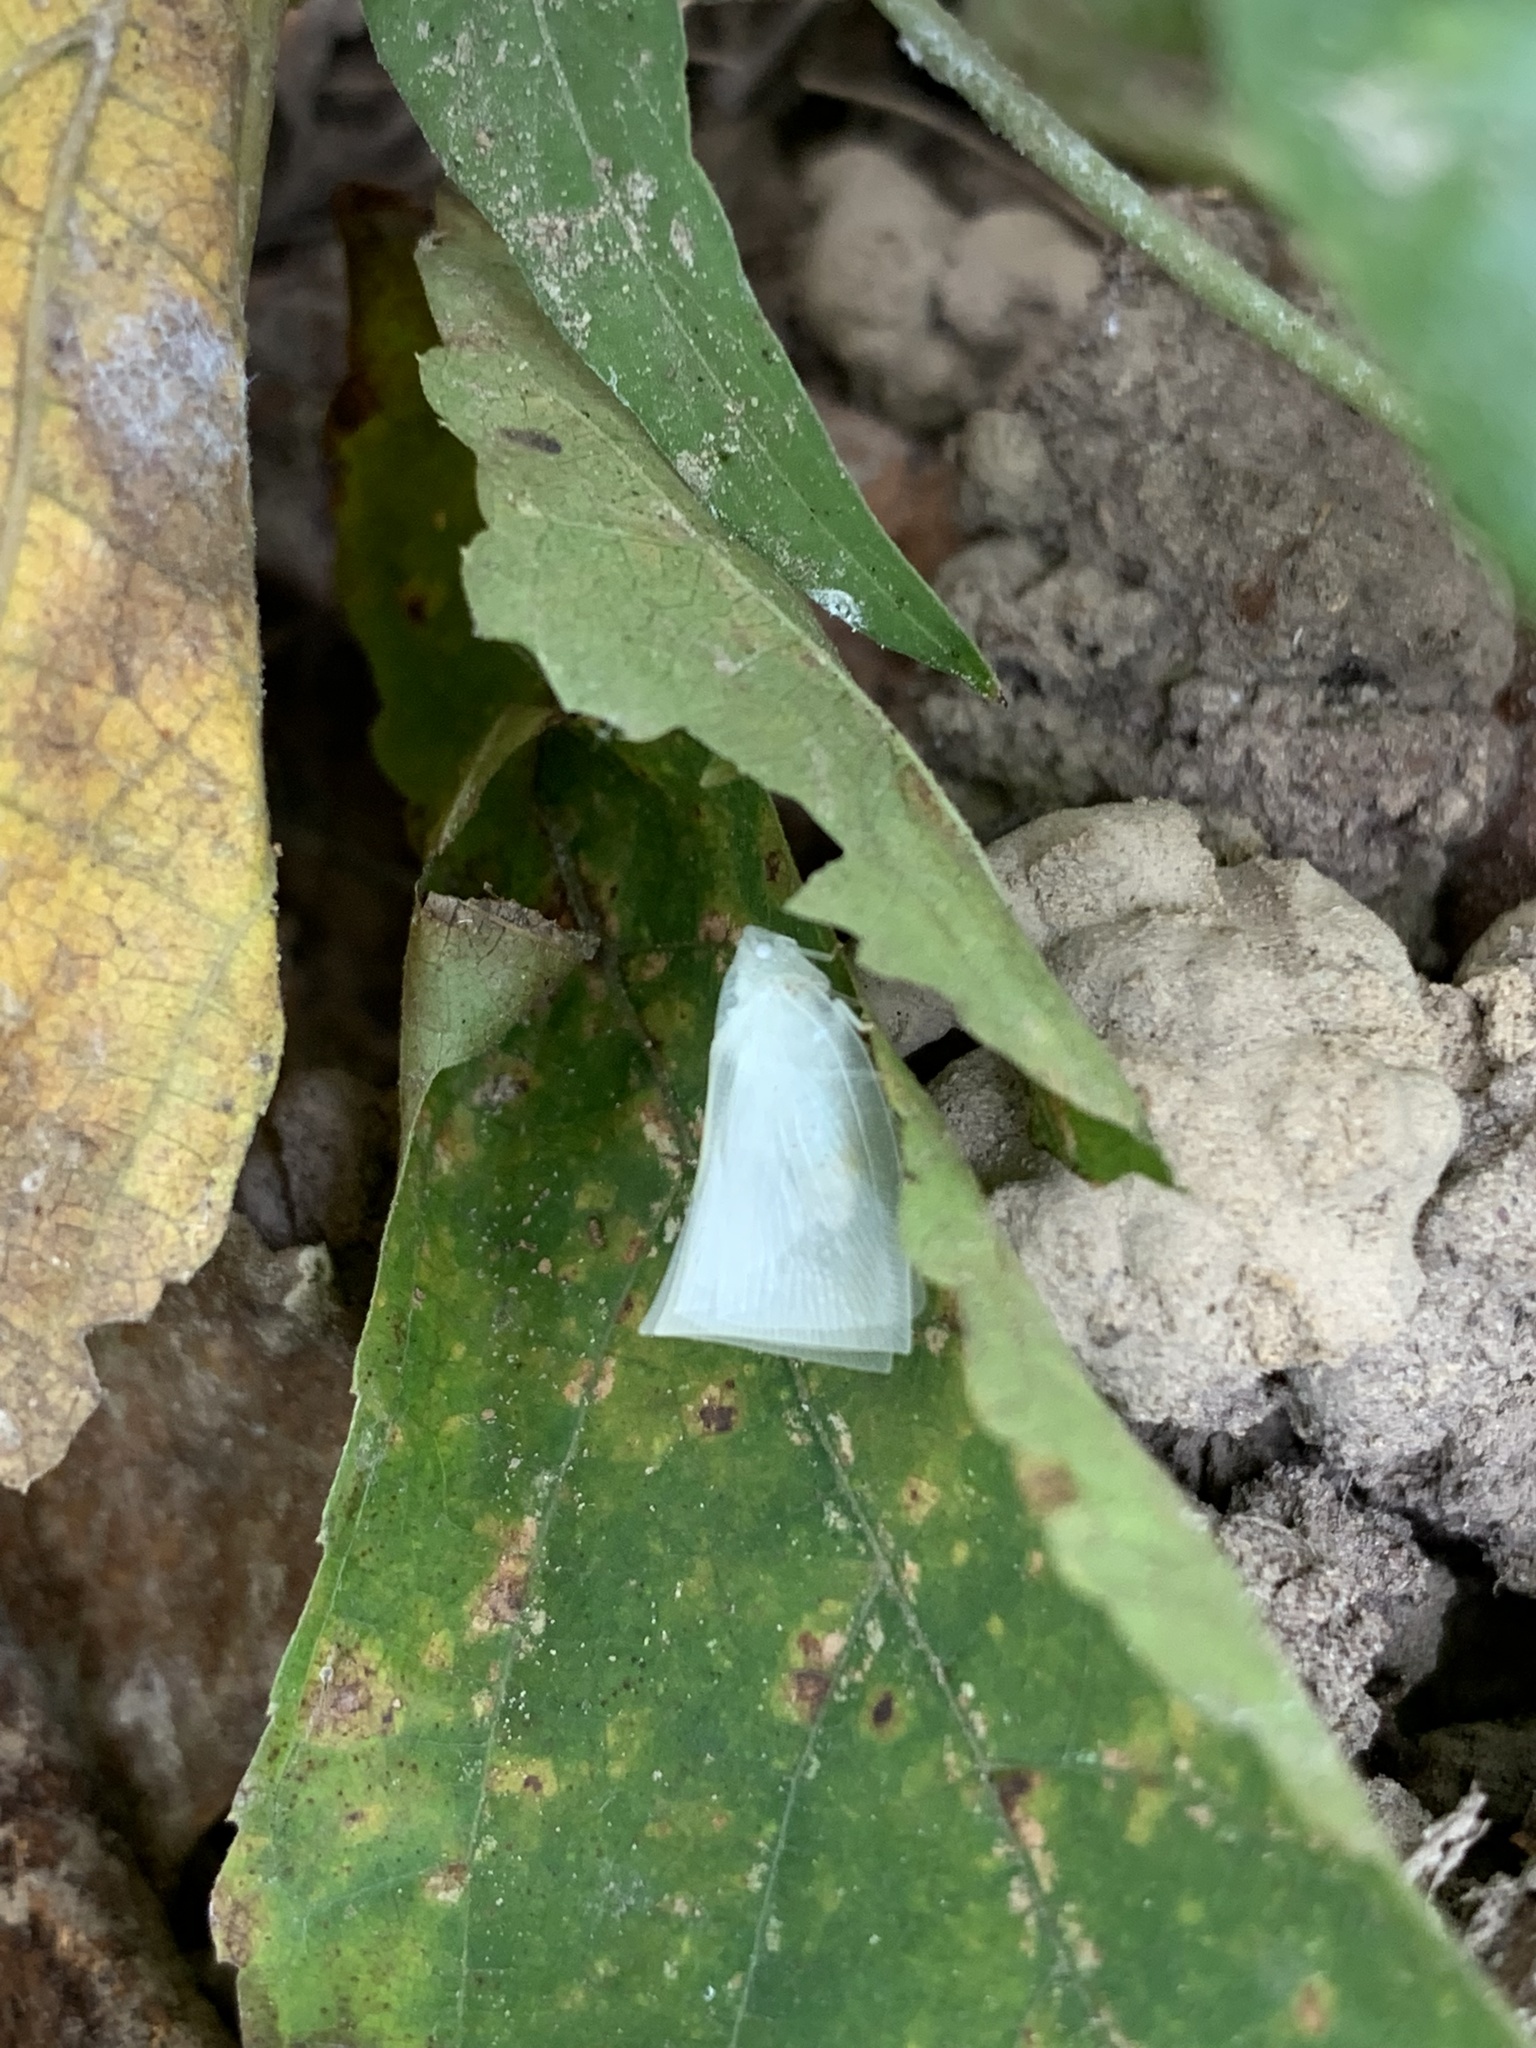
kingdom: Animalia
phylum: Arthropoda
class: Insecta
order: Hemiptera
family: Flatidae
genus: Phylliana
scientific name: Phylliana alba
